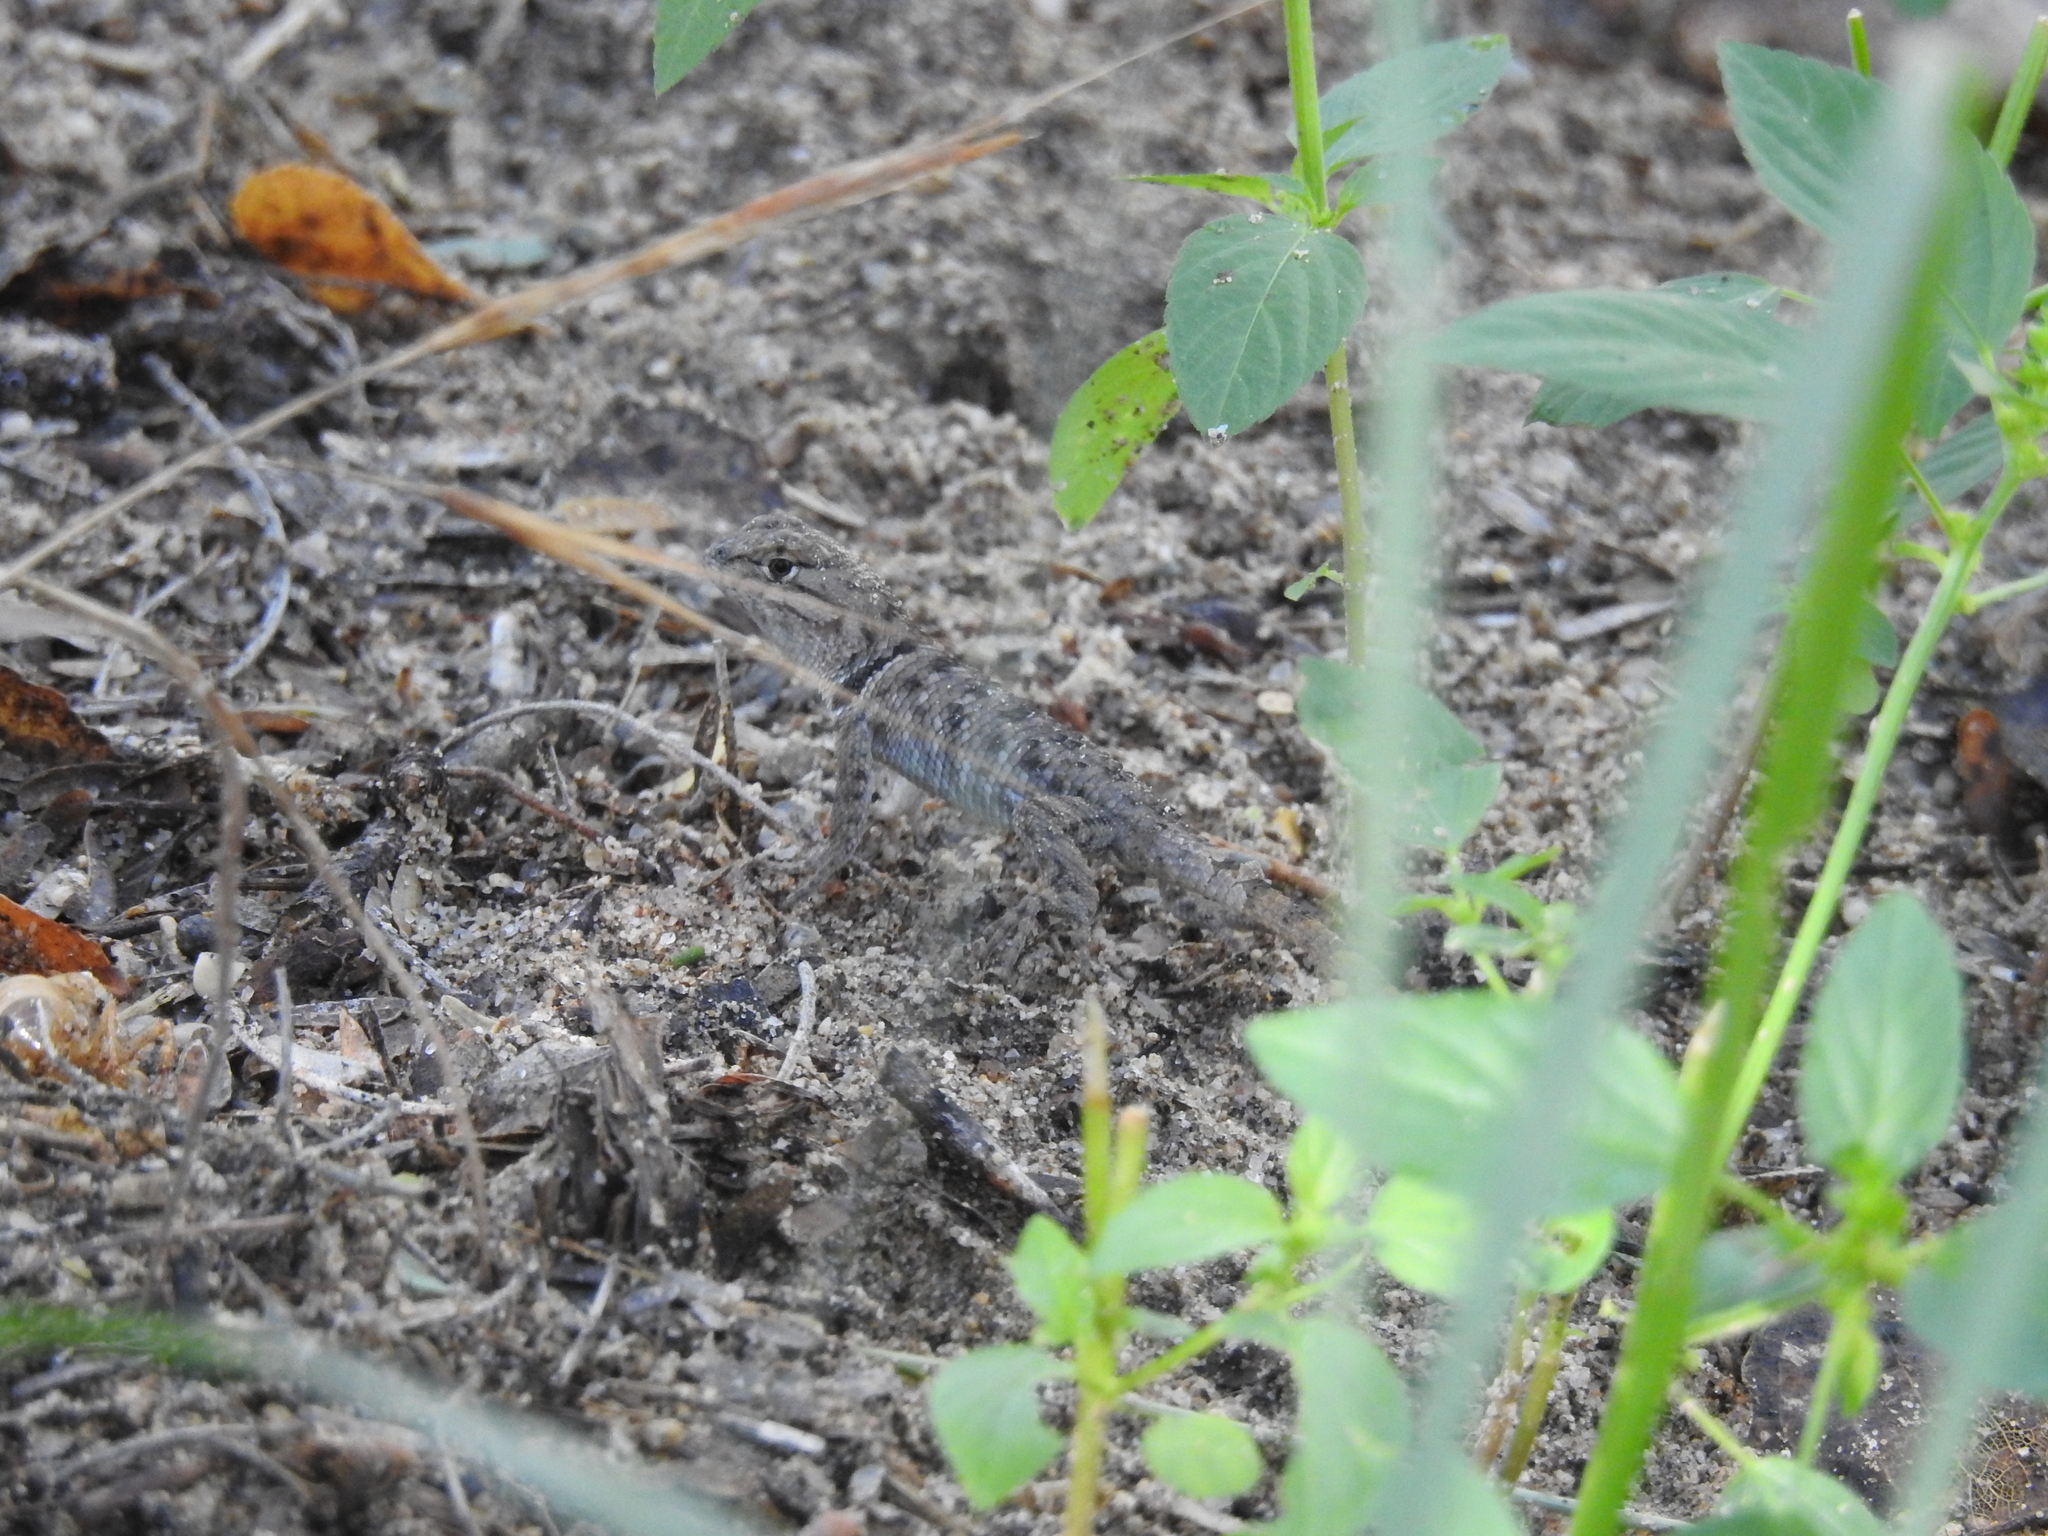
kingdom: Animalia
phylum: Chordata
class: Squamata
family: Phrynosomatidae
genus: Sceloporus
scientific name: Sceloporus magister
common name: Desert spiny lizard
